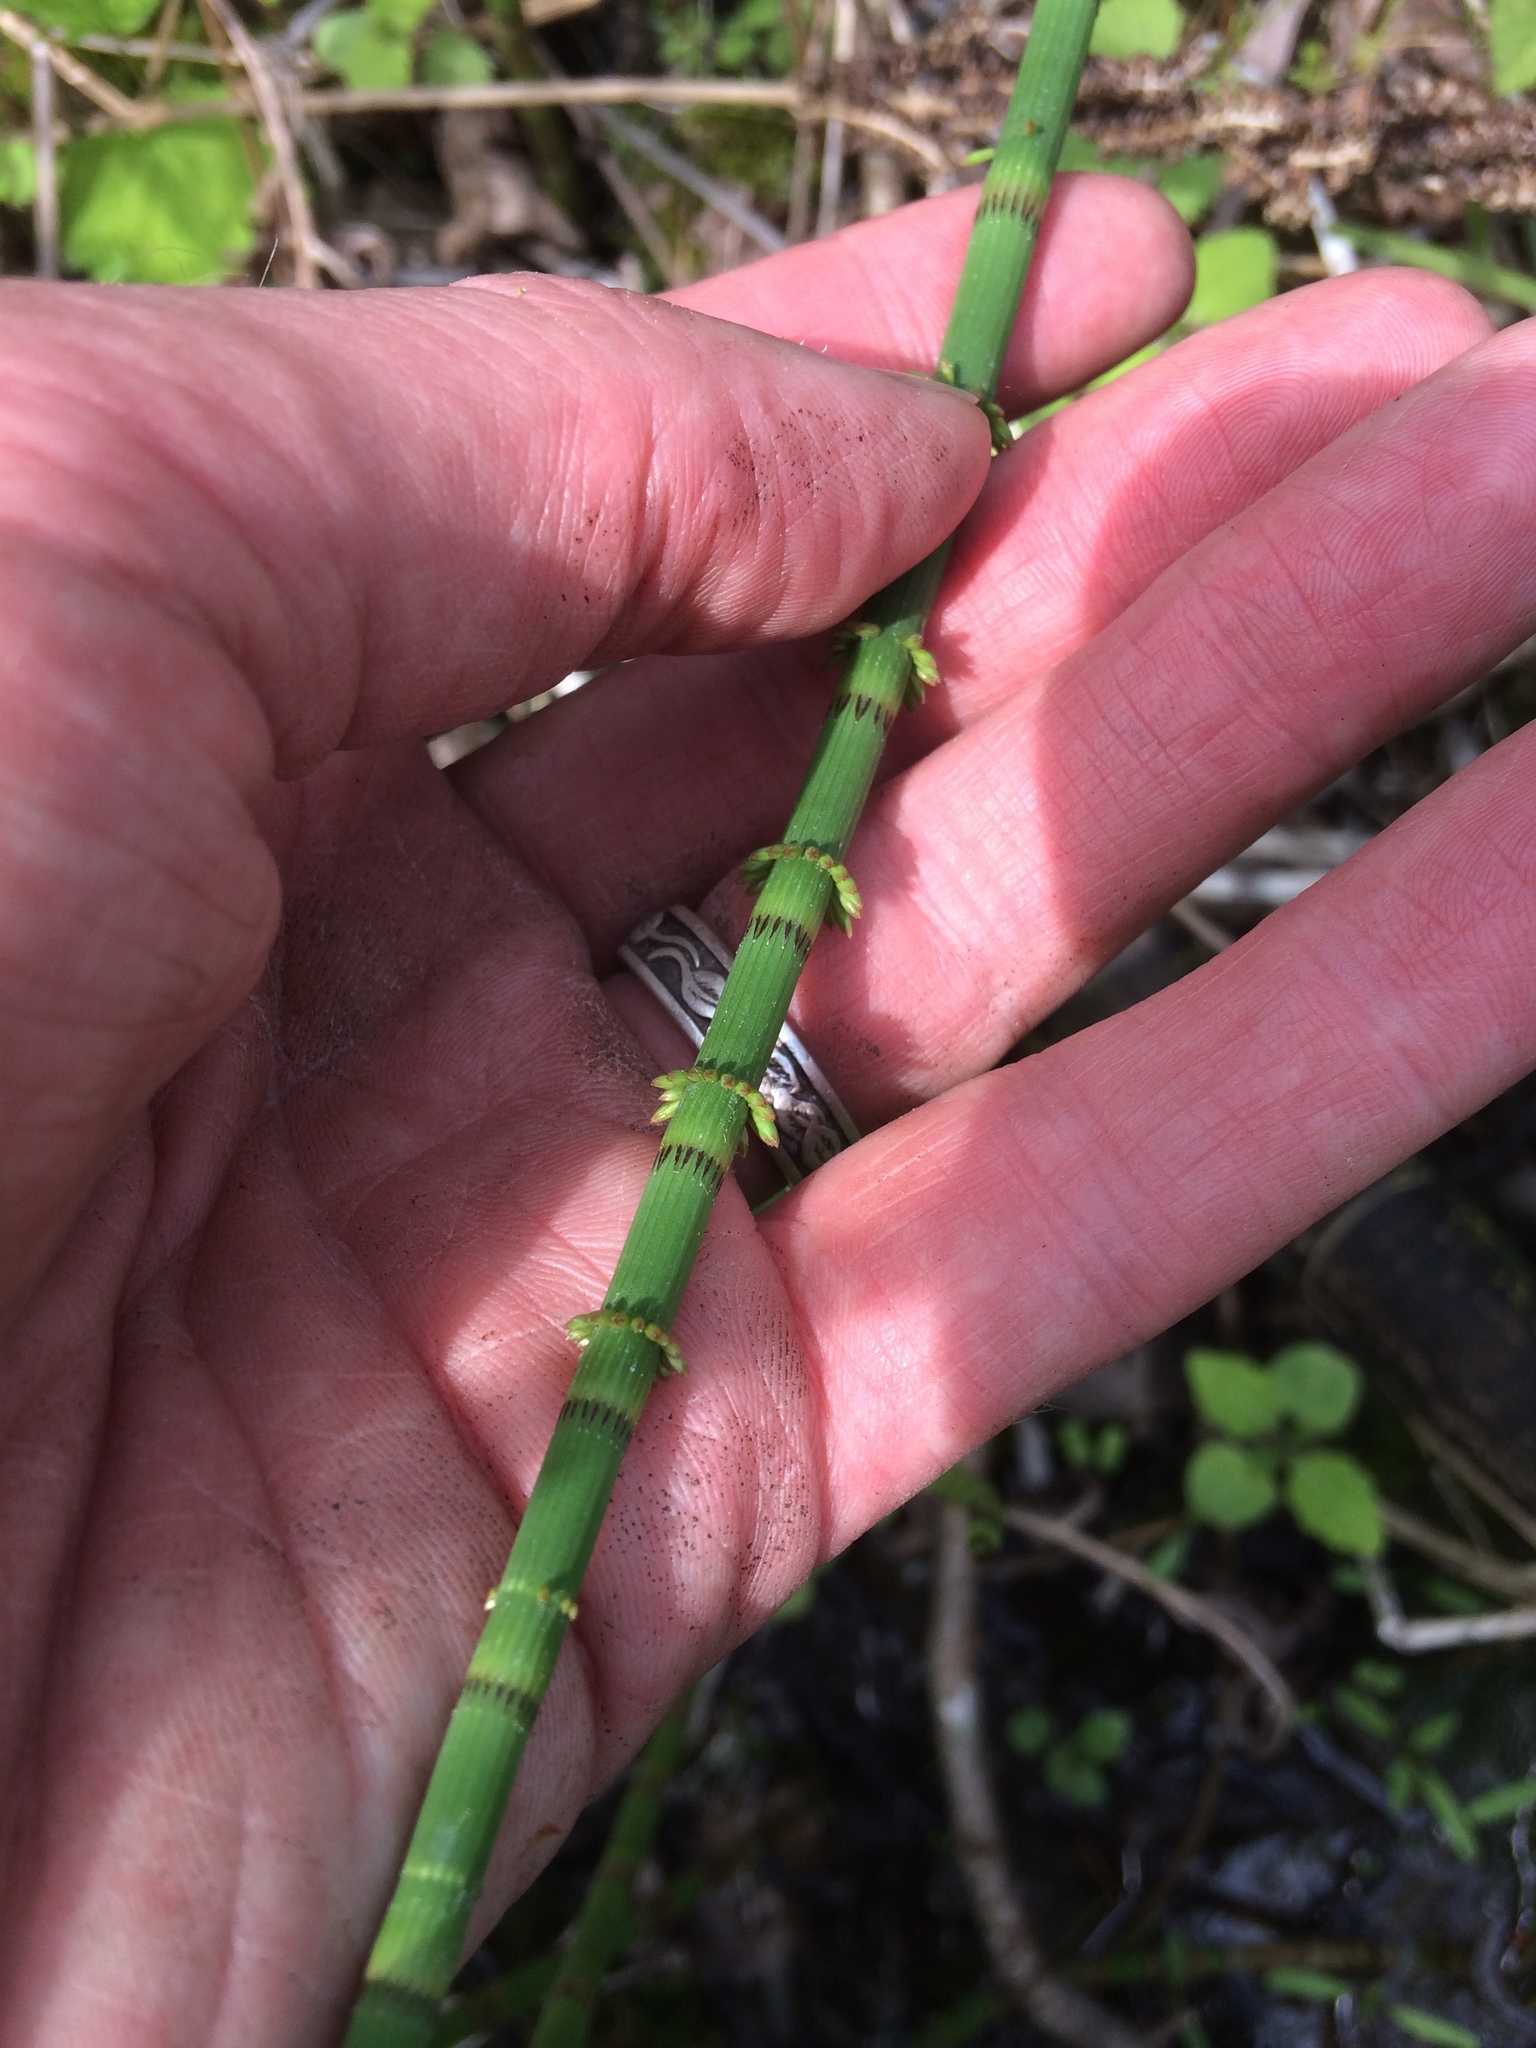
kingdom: Plantae
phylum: Tracheophyta
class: Polypodiopsida
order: Equisetales
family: Equisetaceae
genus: Equisetum
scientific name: Equisetum fluviatile
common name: Water horsetail
